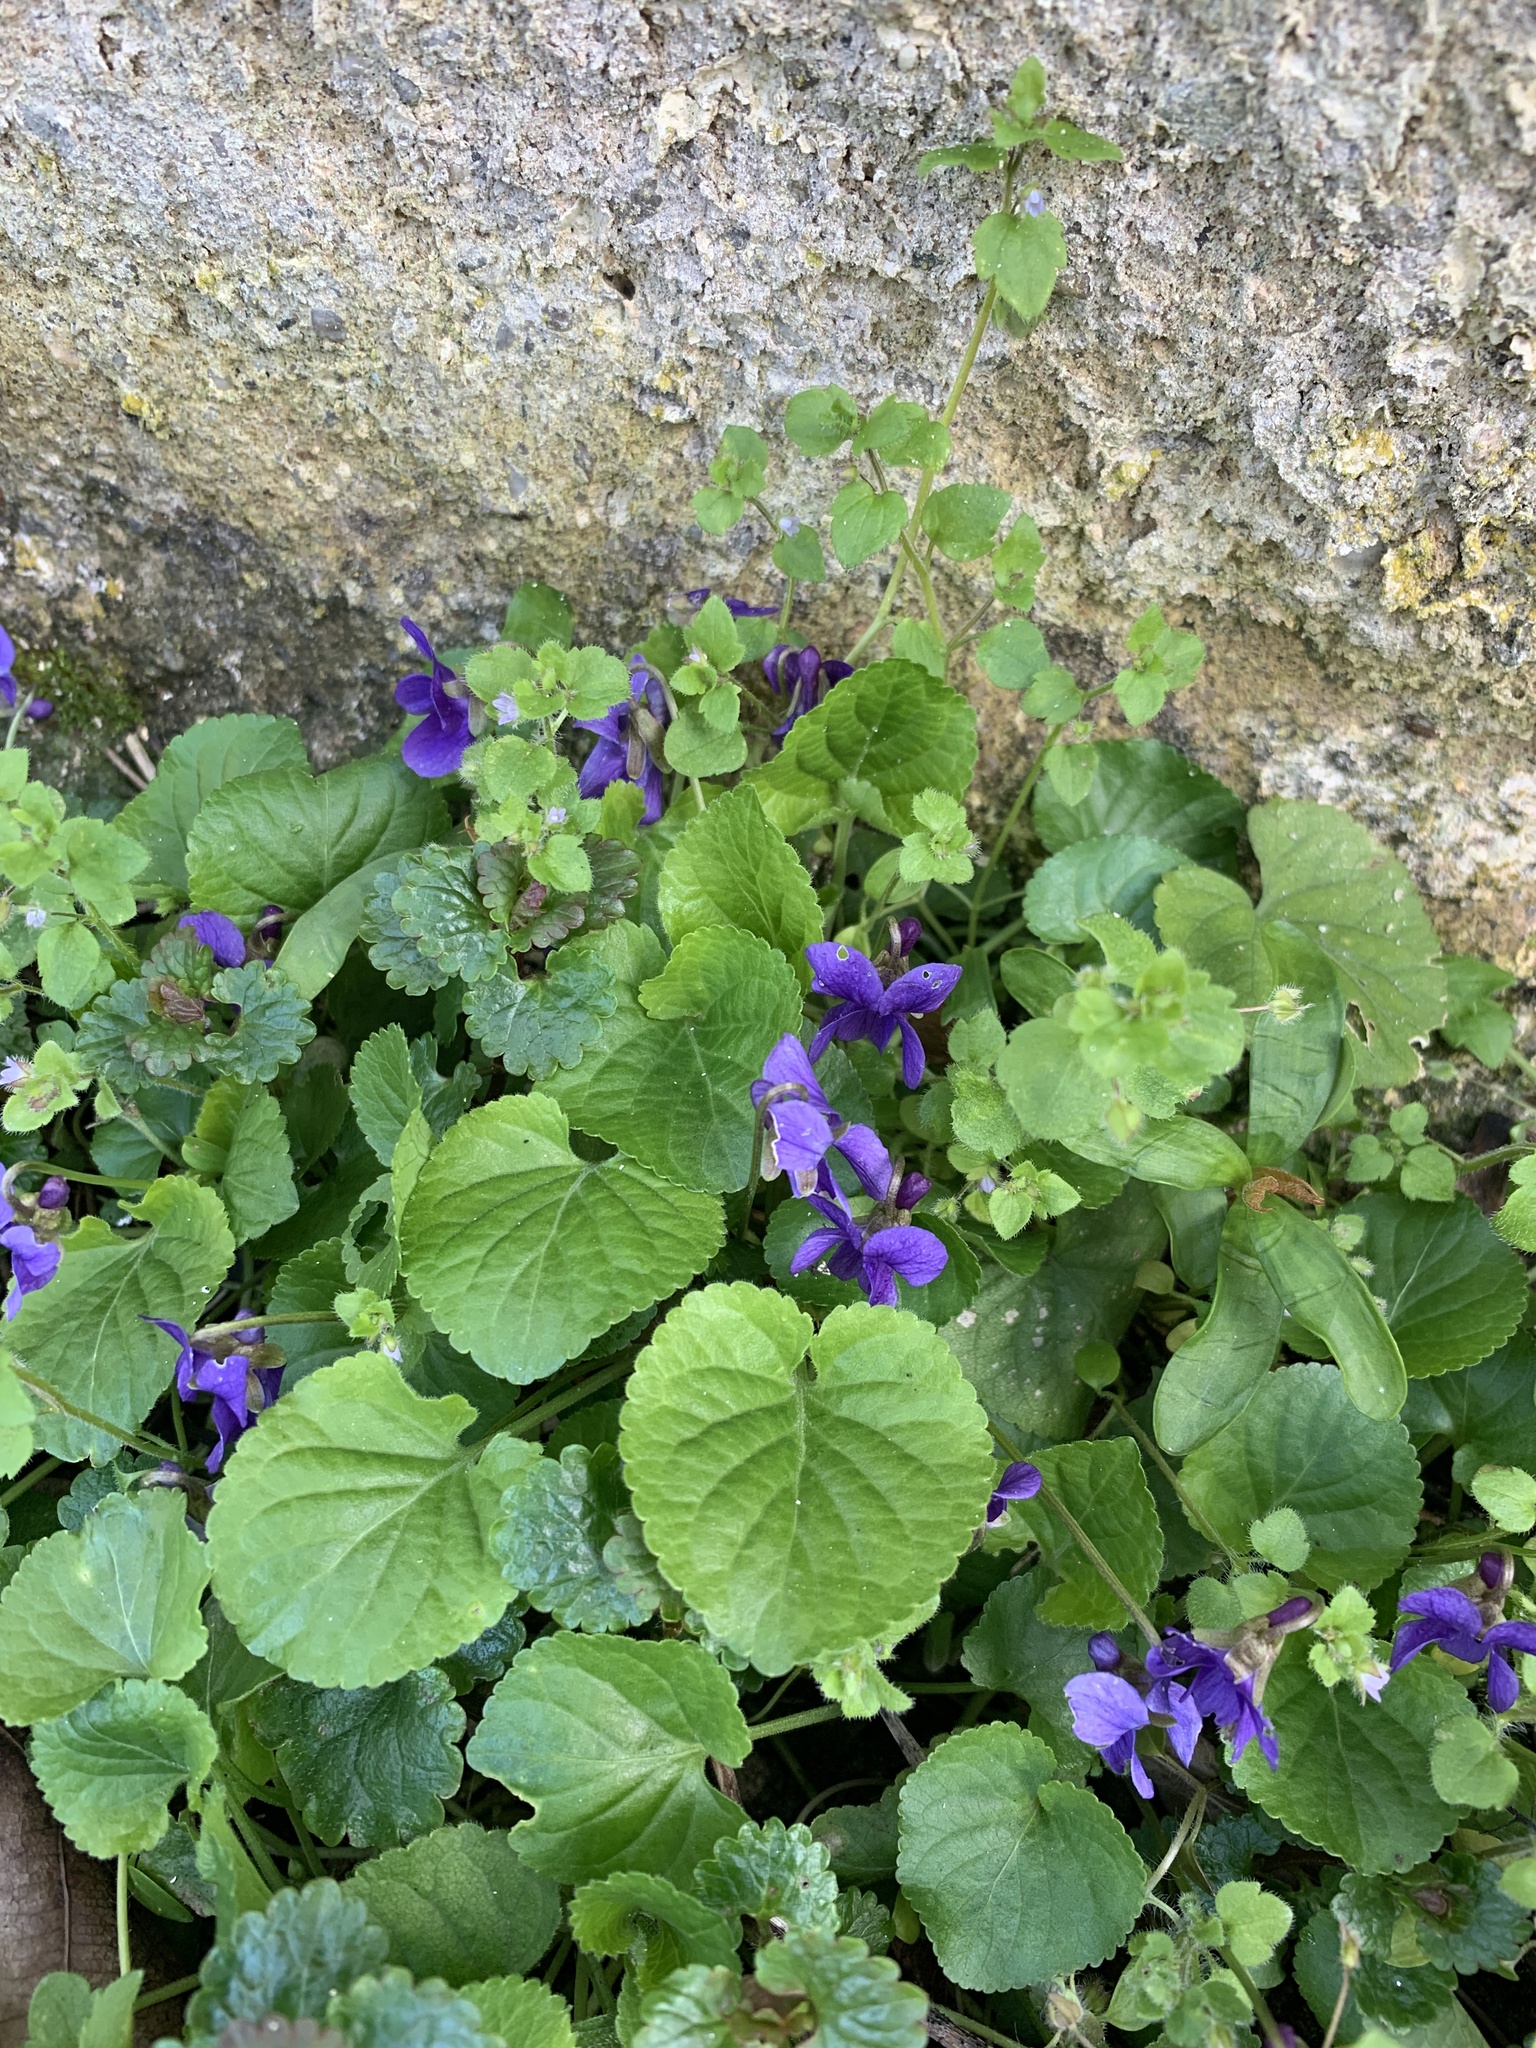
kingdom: Plantae
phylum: Tracheophyta
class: Magnoliopsida
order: Malpighiales
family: Violaceae
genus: Viola
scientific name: Viola odorata
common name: Sweet violet
